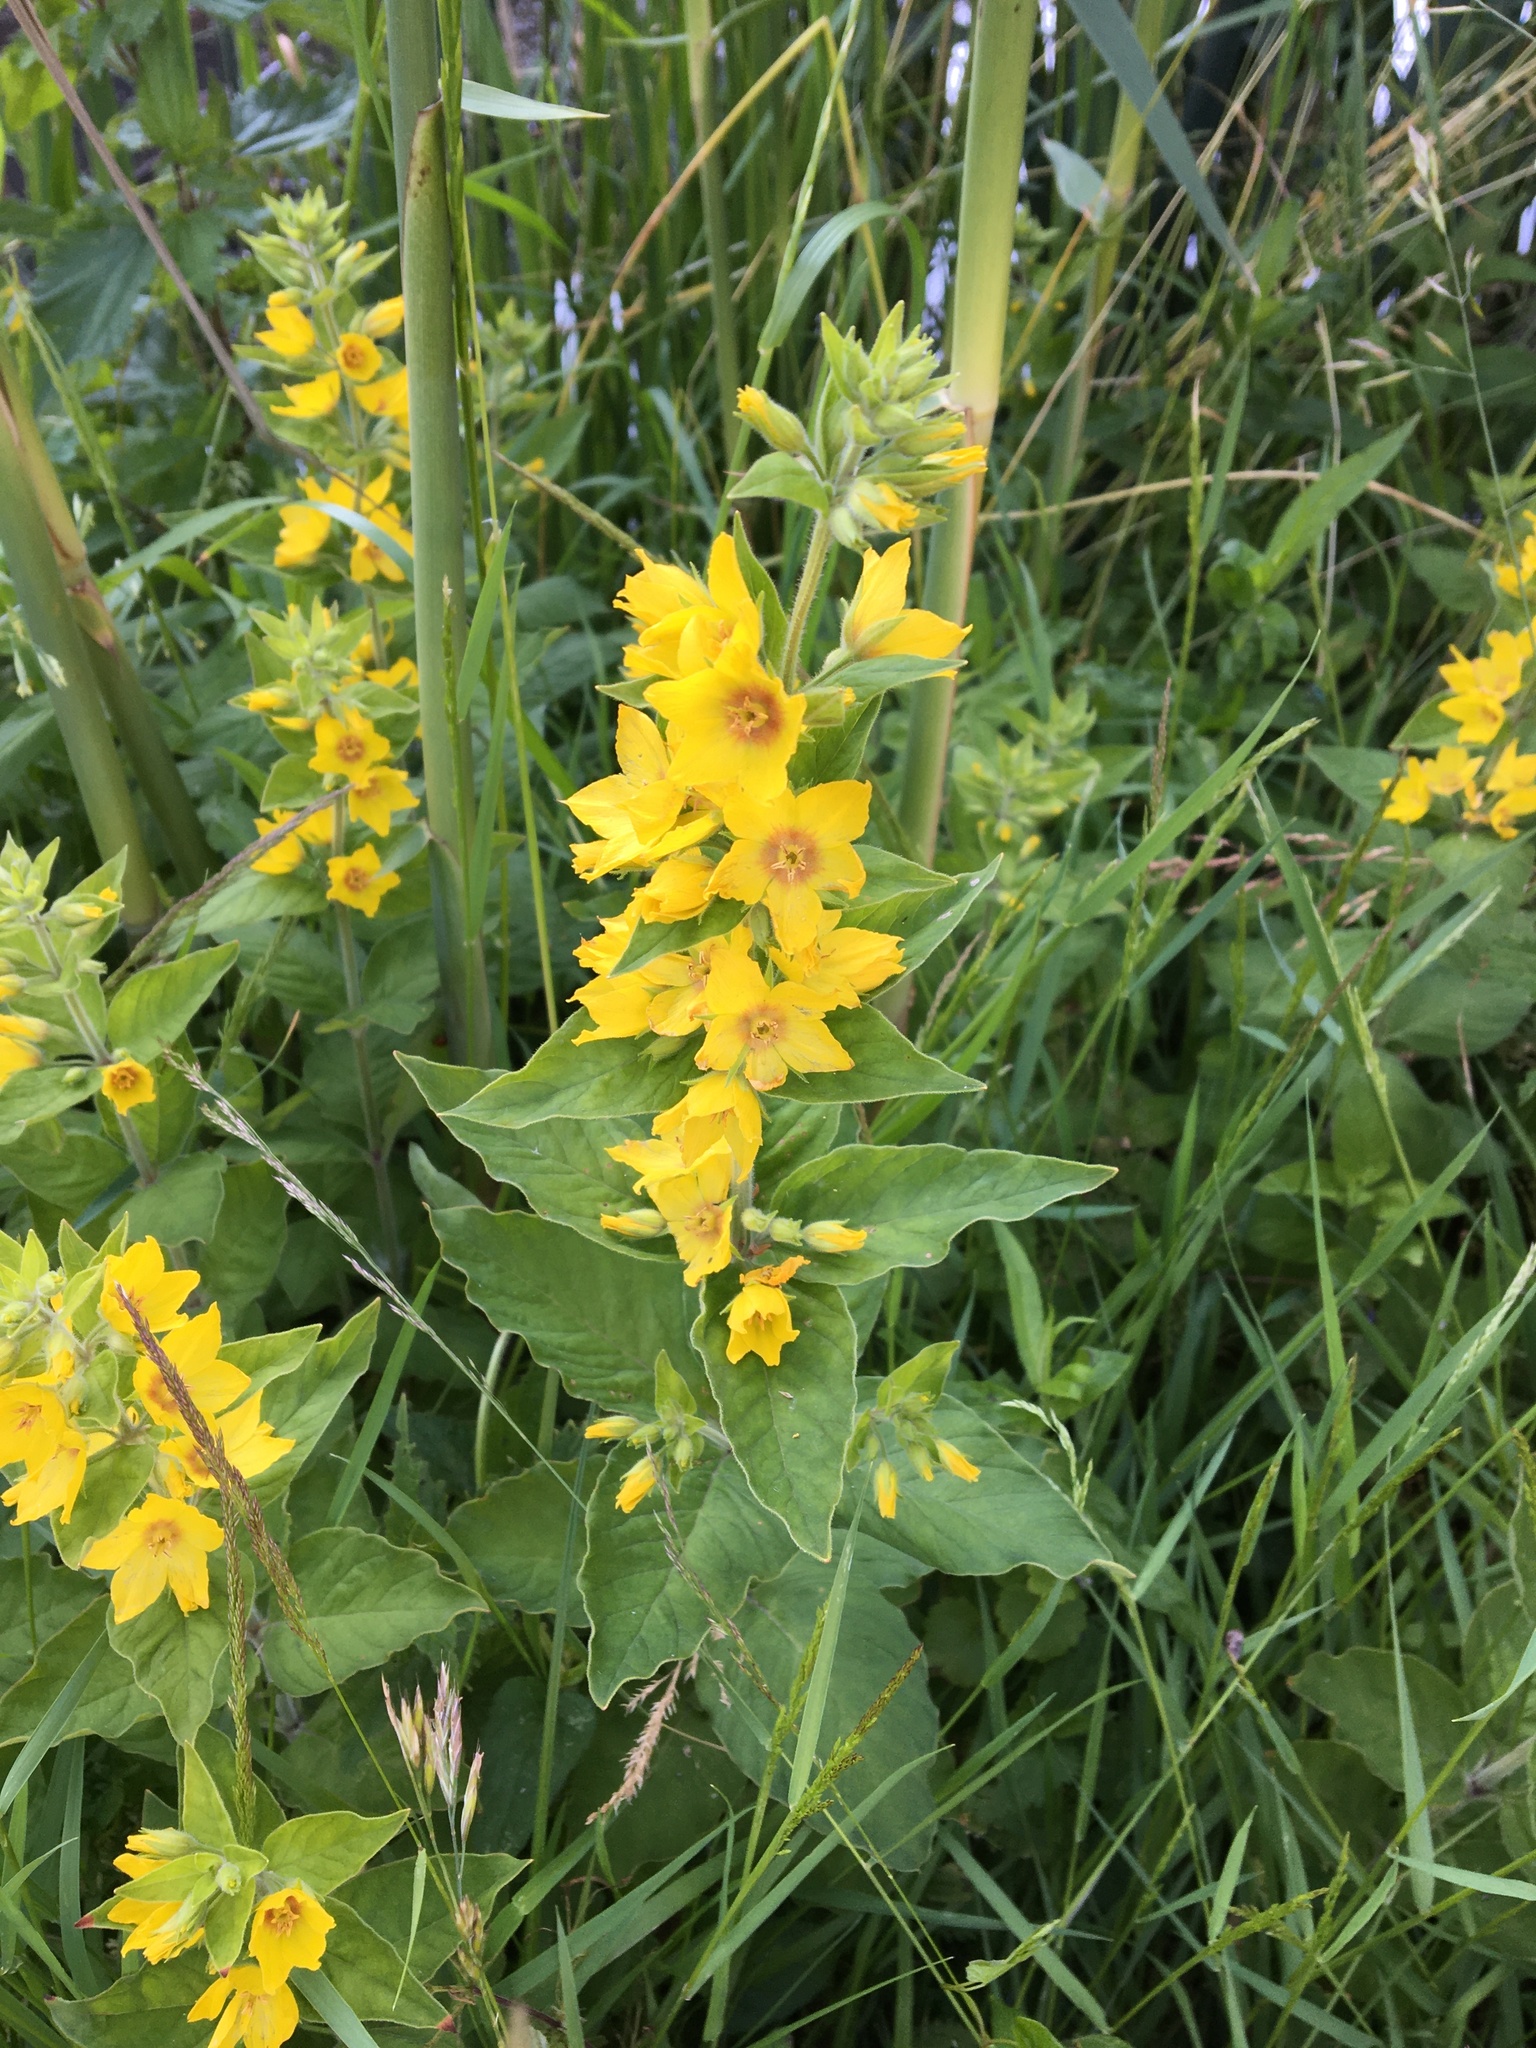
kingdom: Plantae
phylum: Tracheophyta
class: Magnoliopsida
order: Ericales
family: Primulaceae
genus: Lysimachia
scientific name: Lysimachia punctata
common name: Dotted loosestrife
